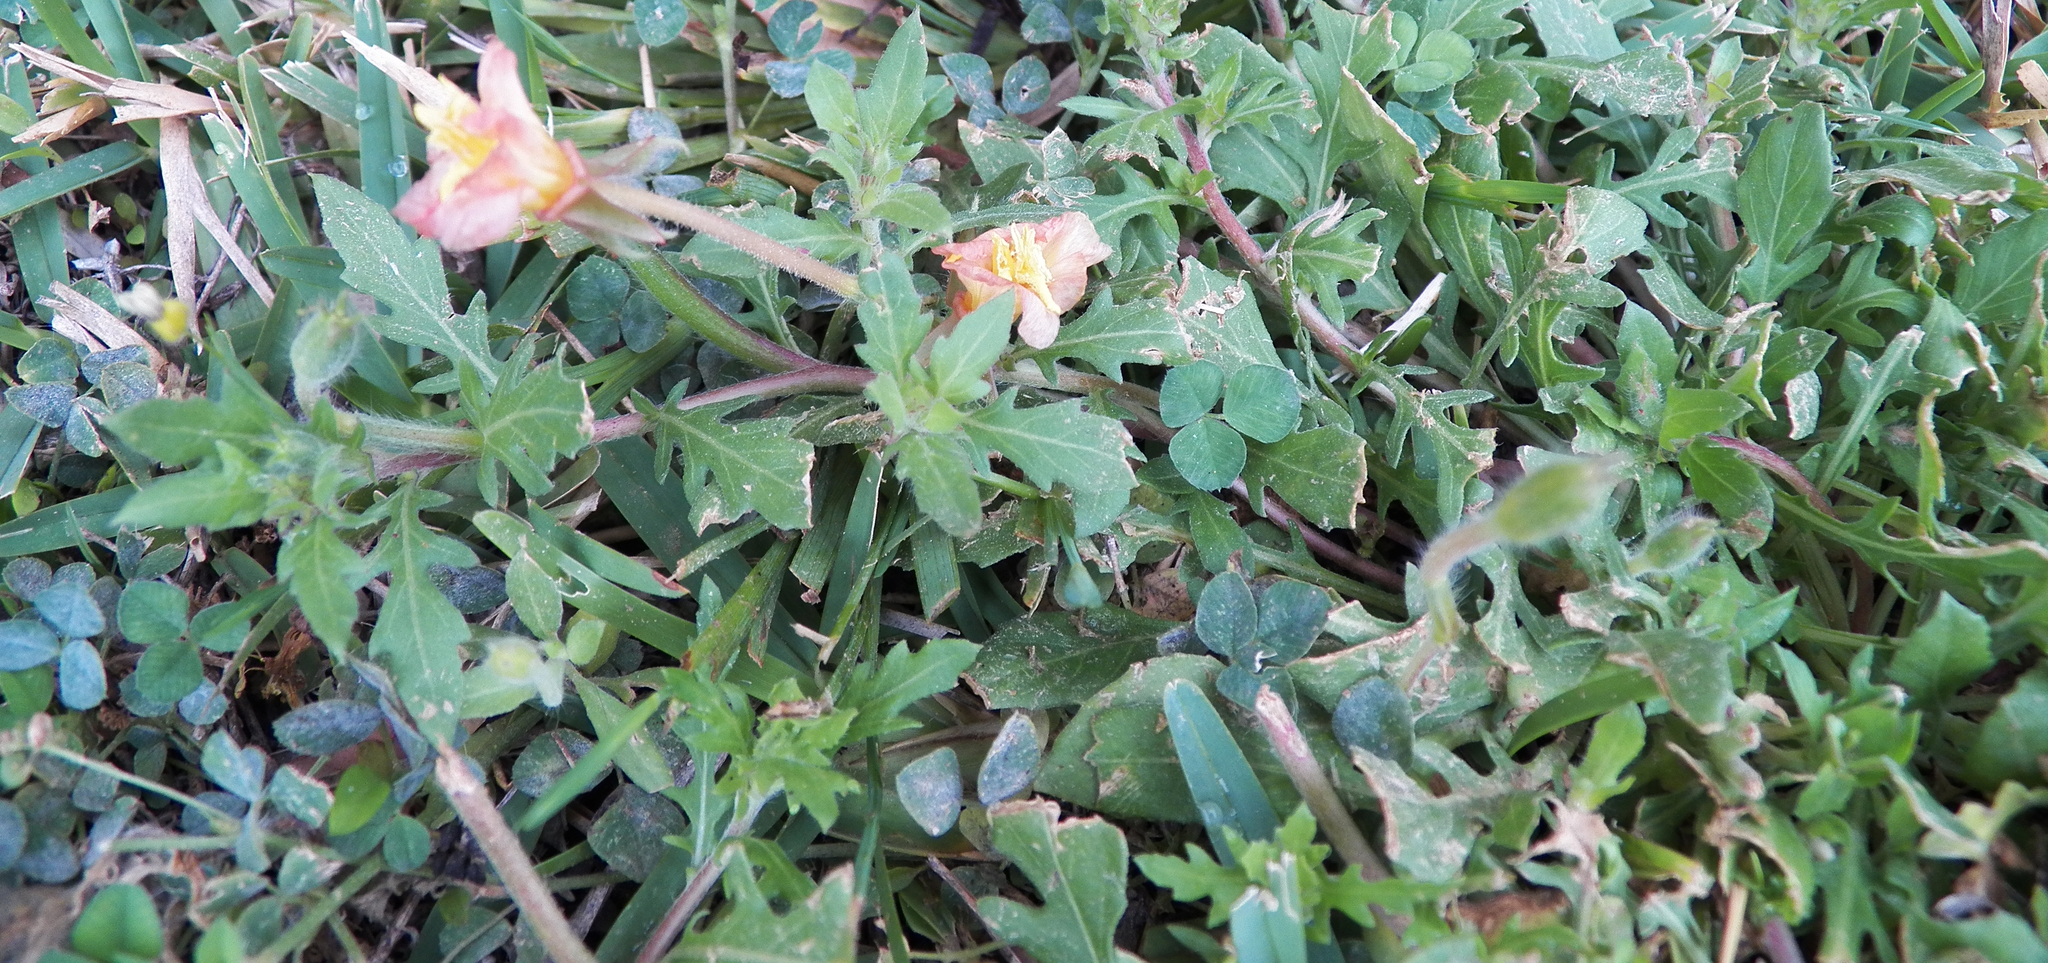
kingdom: Plantae
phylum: Tracheophyta
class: Magnoliopsida
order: Myrtales
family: Onagraceae
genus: Oenothera
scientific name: Oenothera laciniata
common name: Cut-leaved evening-primrose
